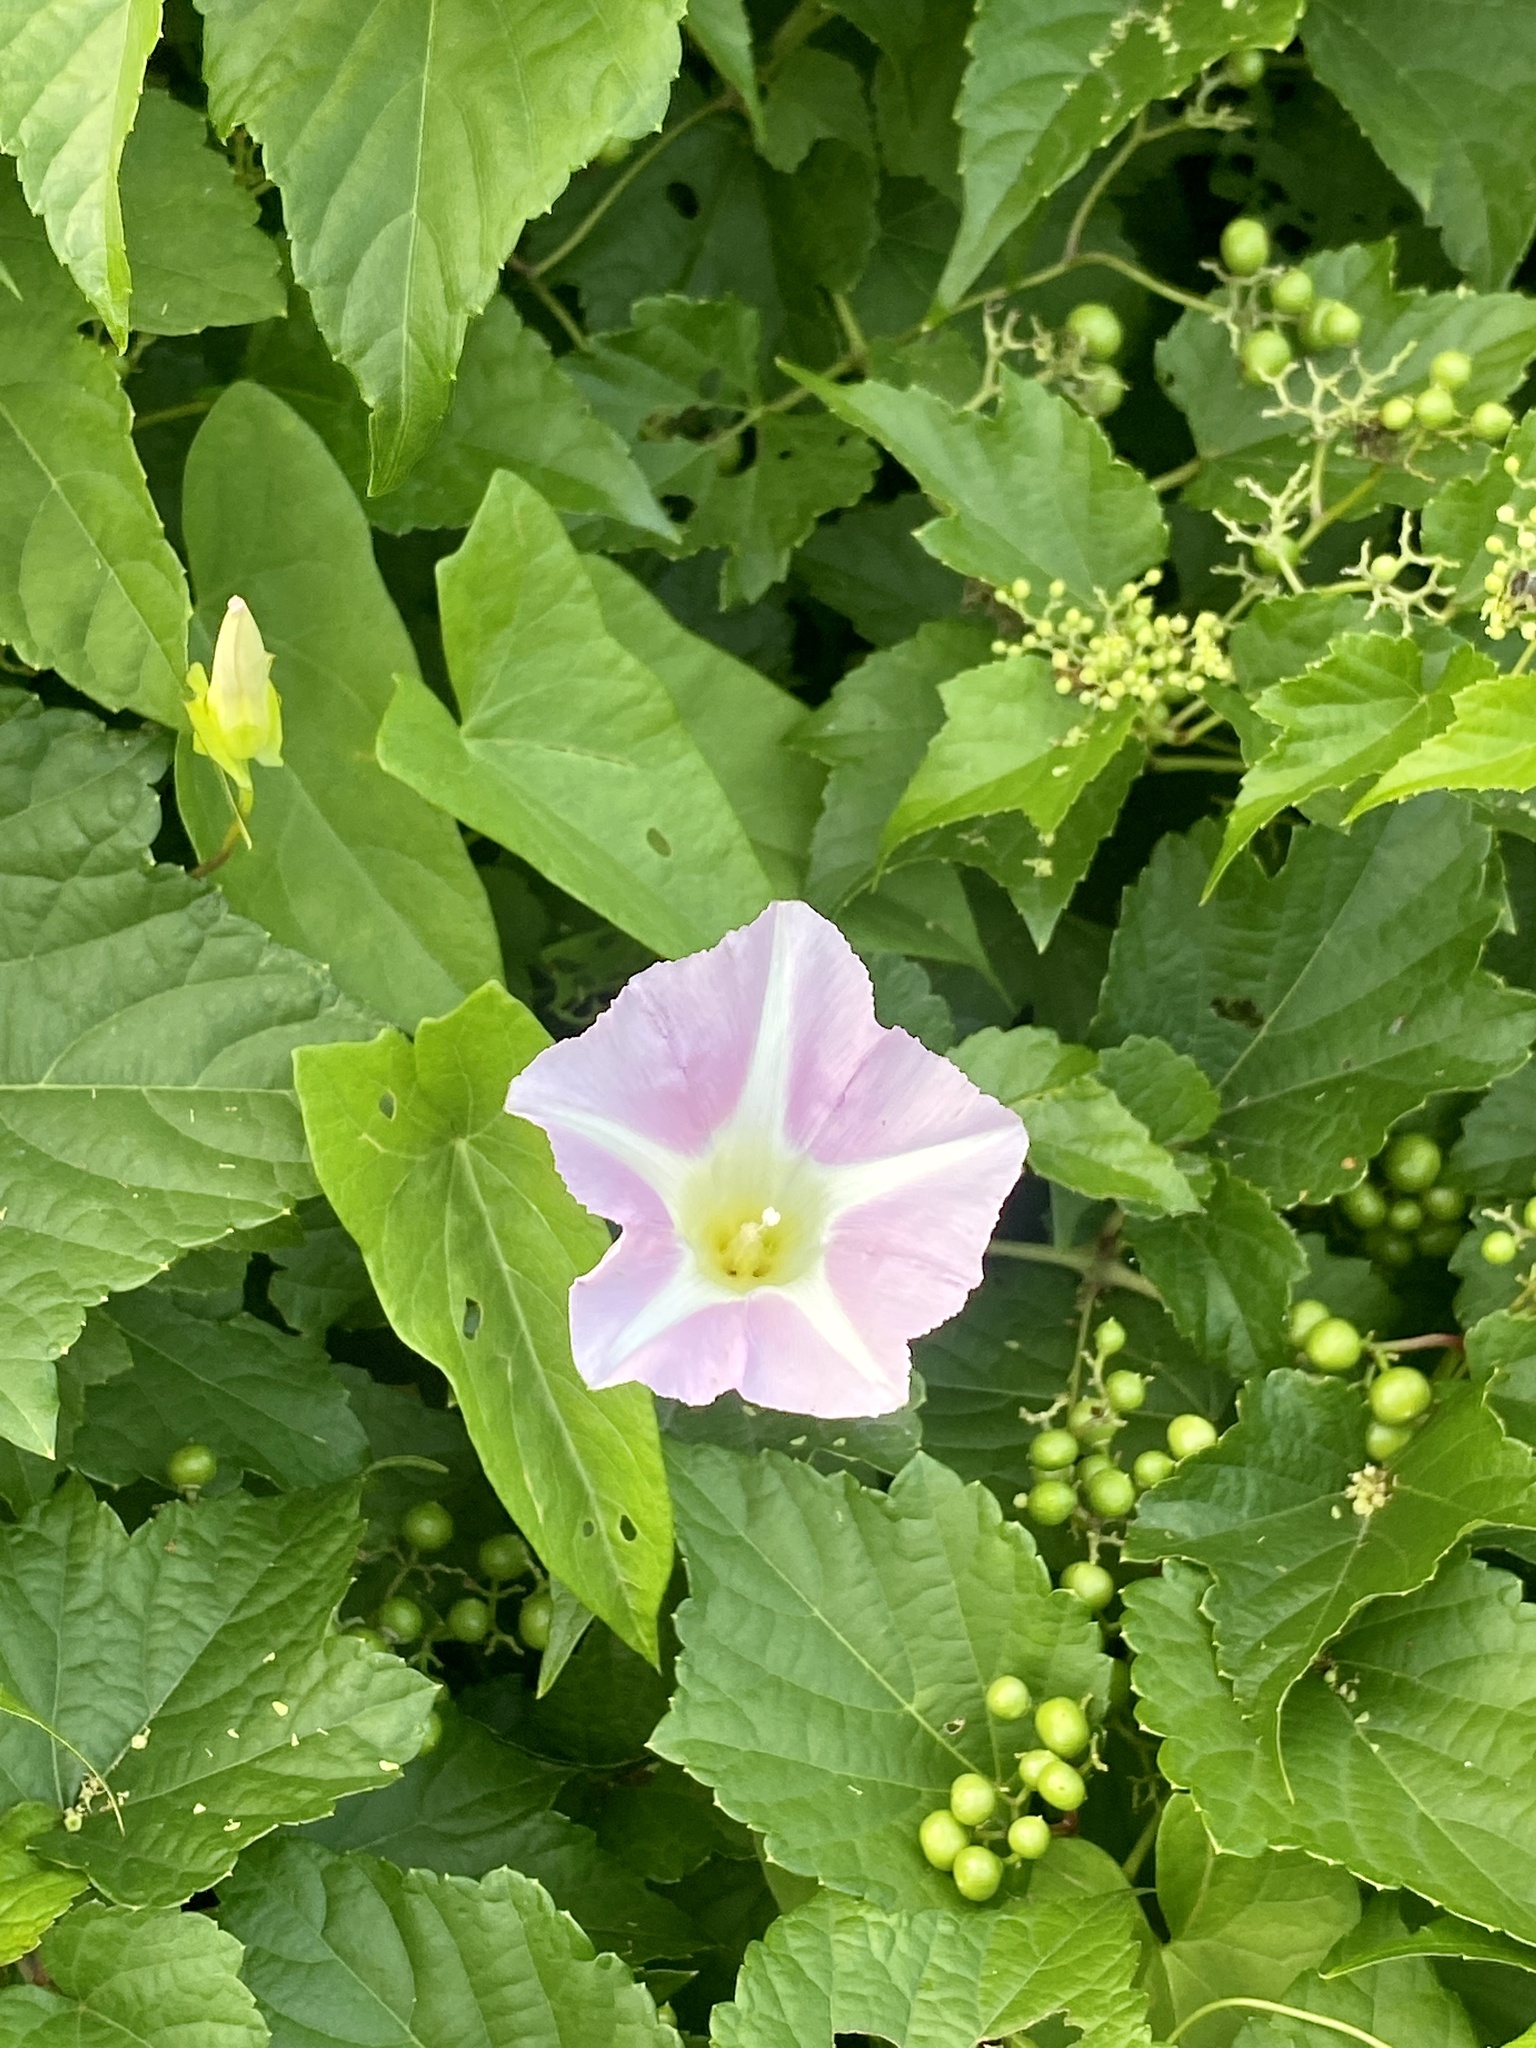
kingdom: Plantae
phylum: Tracheophyta
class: Magnoliopsida
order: Solanales
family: Convolvulaceae
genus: Calystegia
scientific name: Calystegia sepium
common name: Hedge bindweed
